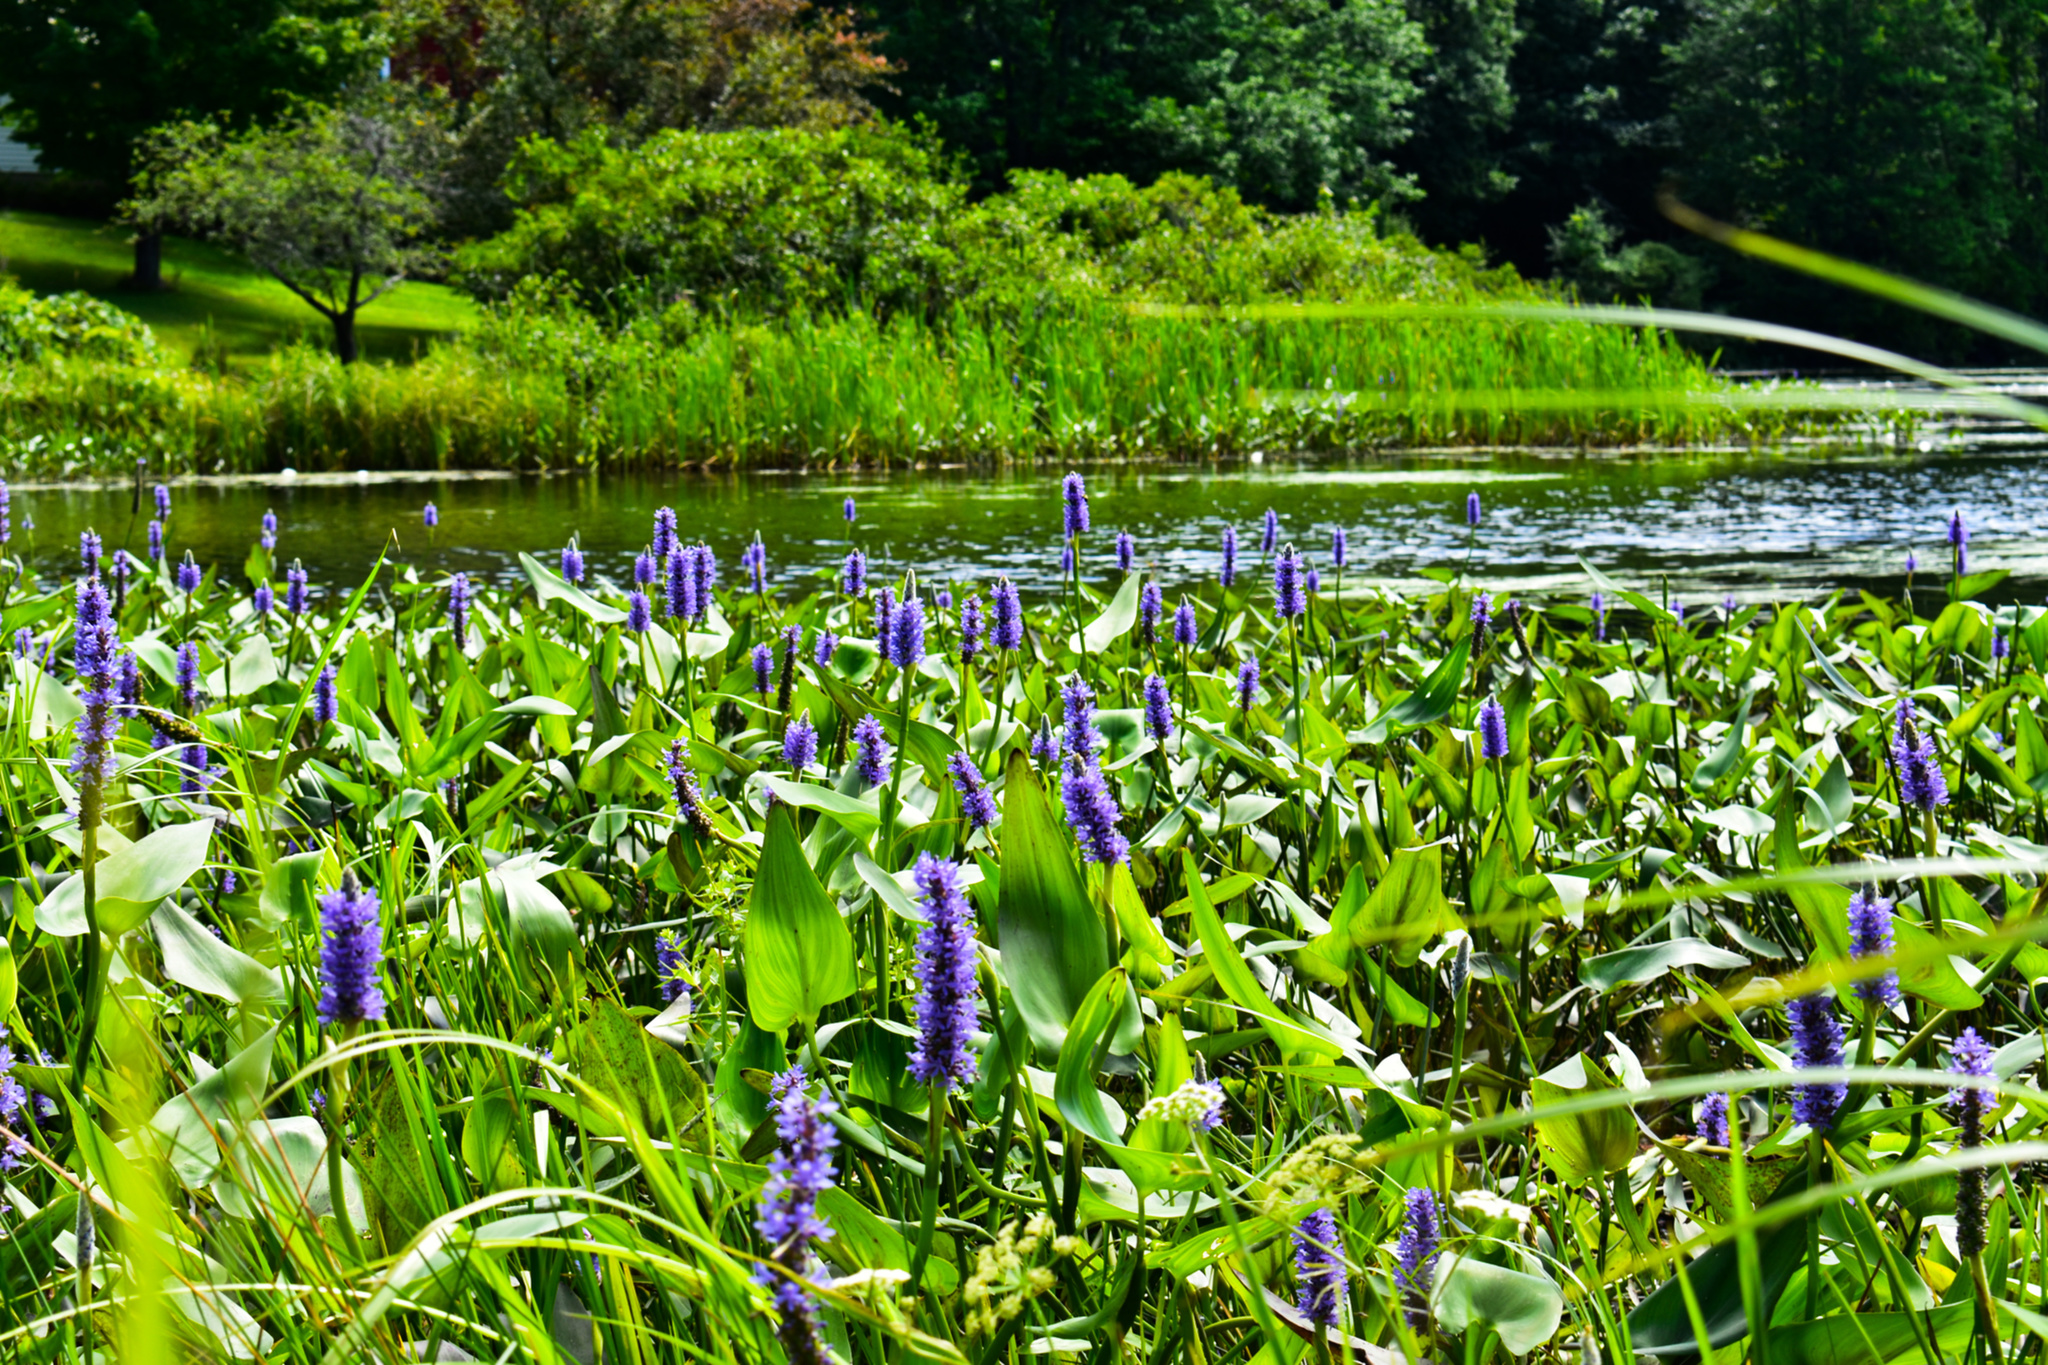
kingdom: Plantae
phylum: Tracheophyta
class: Liliopsida
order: Commelinales
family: Pontederiaceae
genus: Pontederia
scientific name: Pontederia cordata
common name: Pickerelweed
